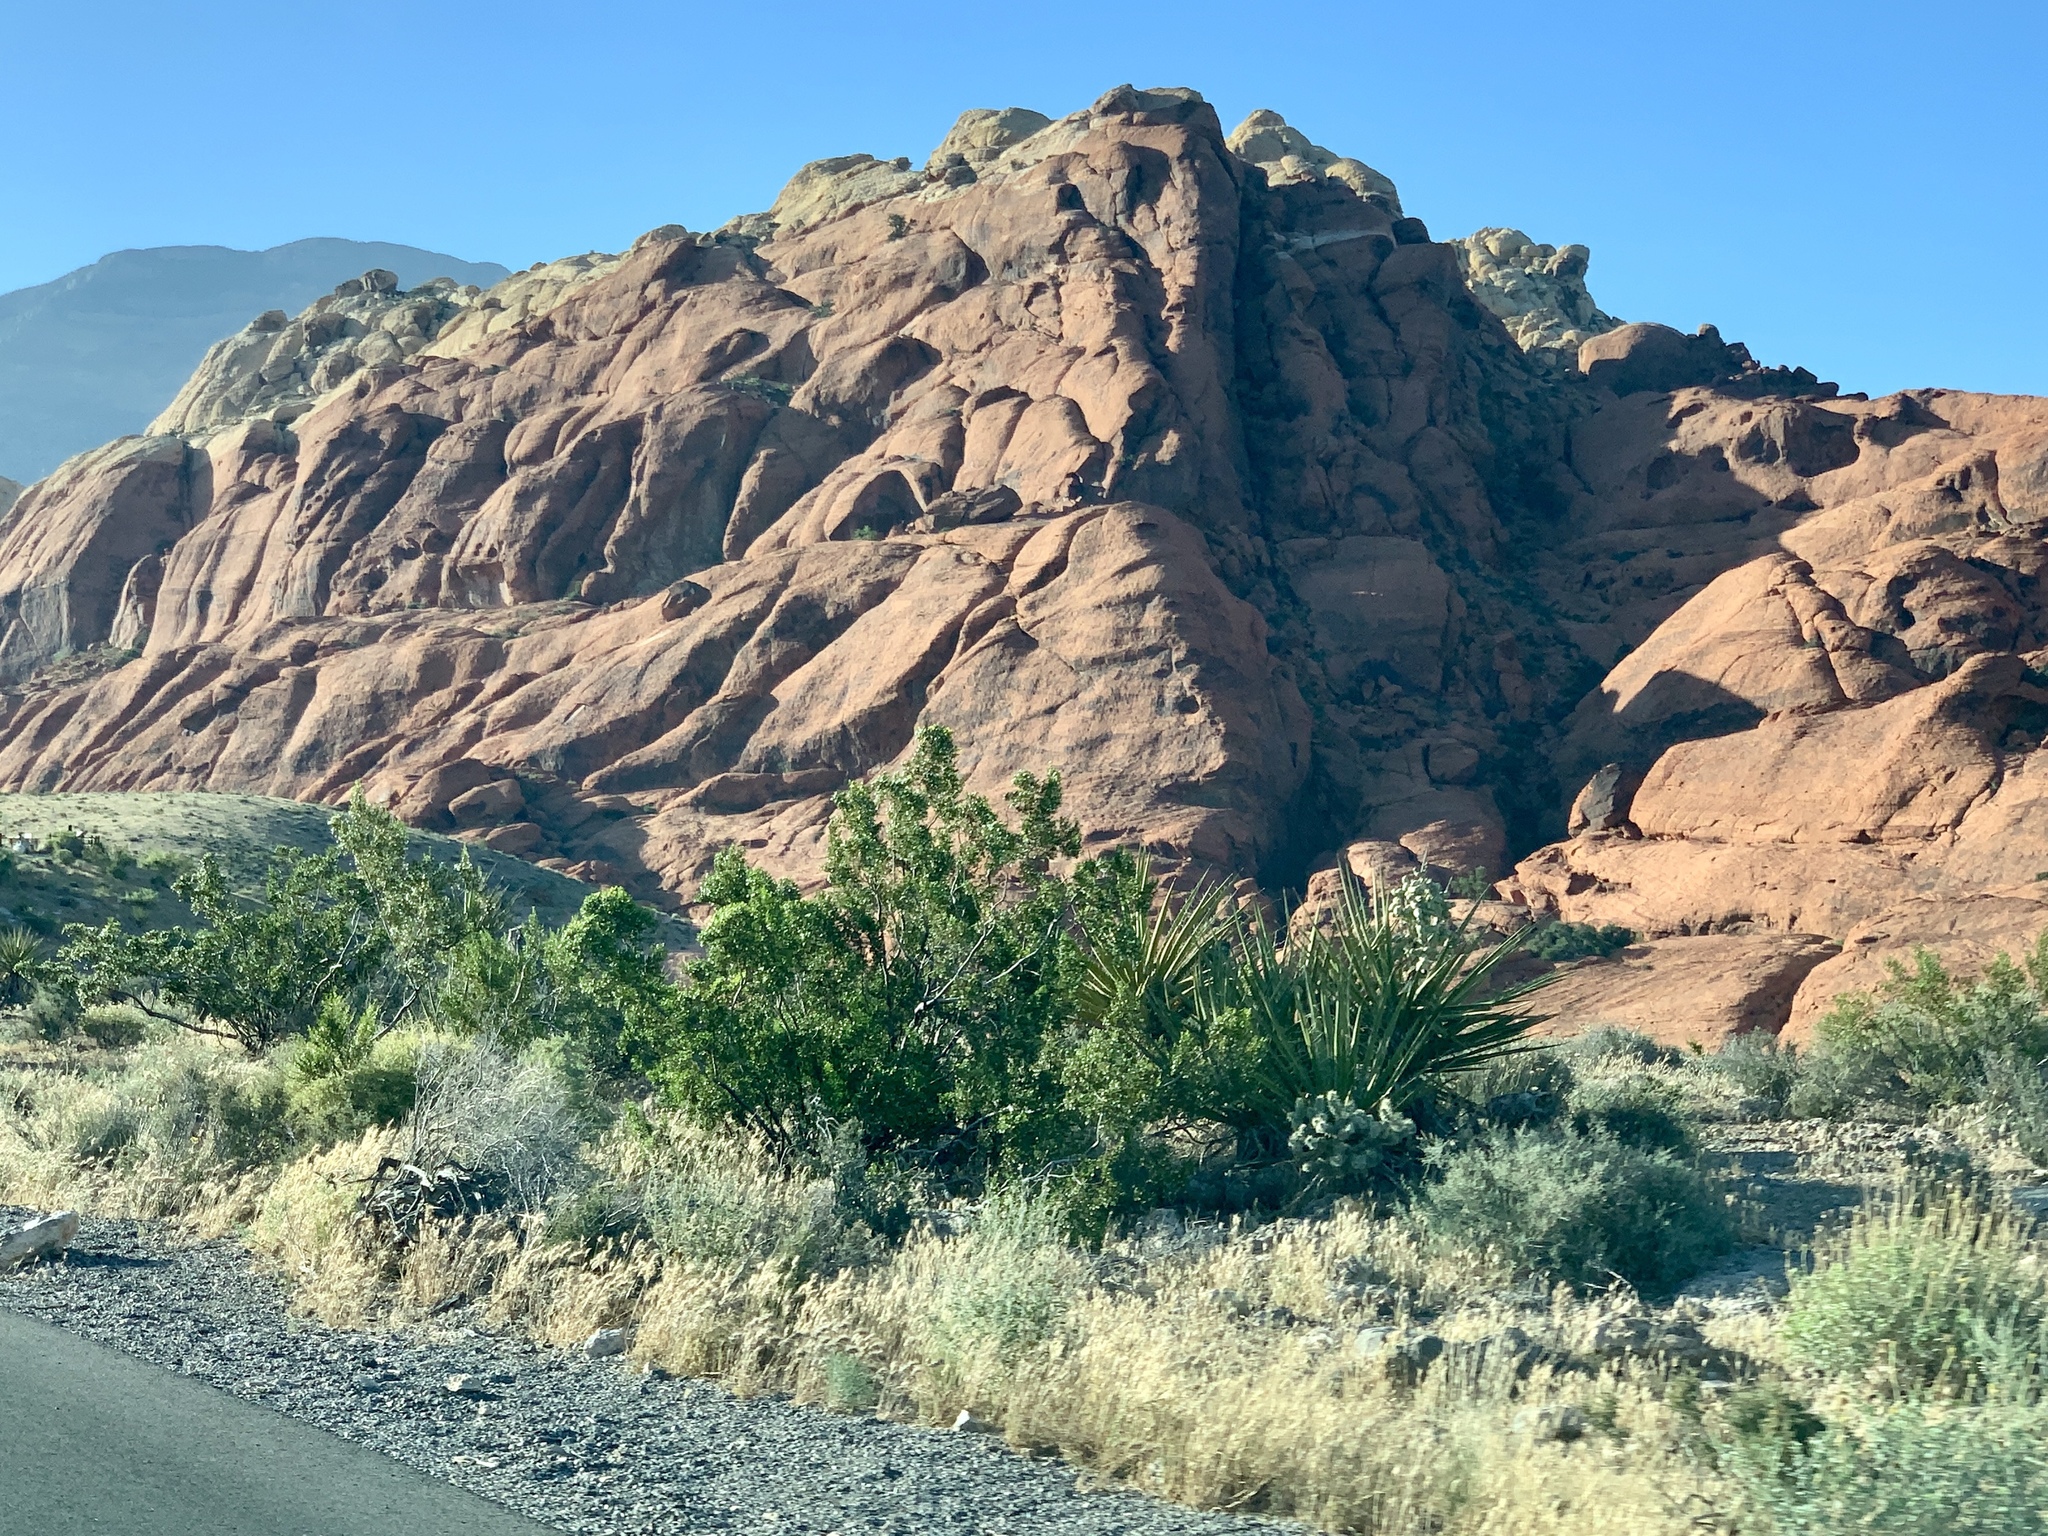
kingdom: Plantae
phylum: Tracheophyta
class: Magnoliopsida
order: Zygophyllales
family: Zygophyllaceae
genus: Larrea
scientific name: Larrea tridentata
